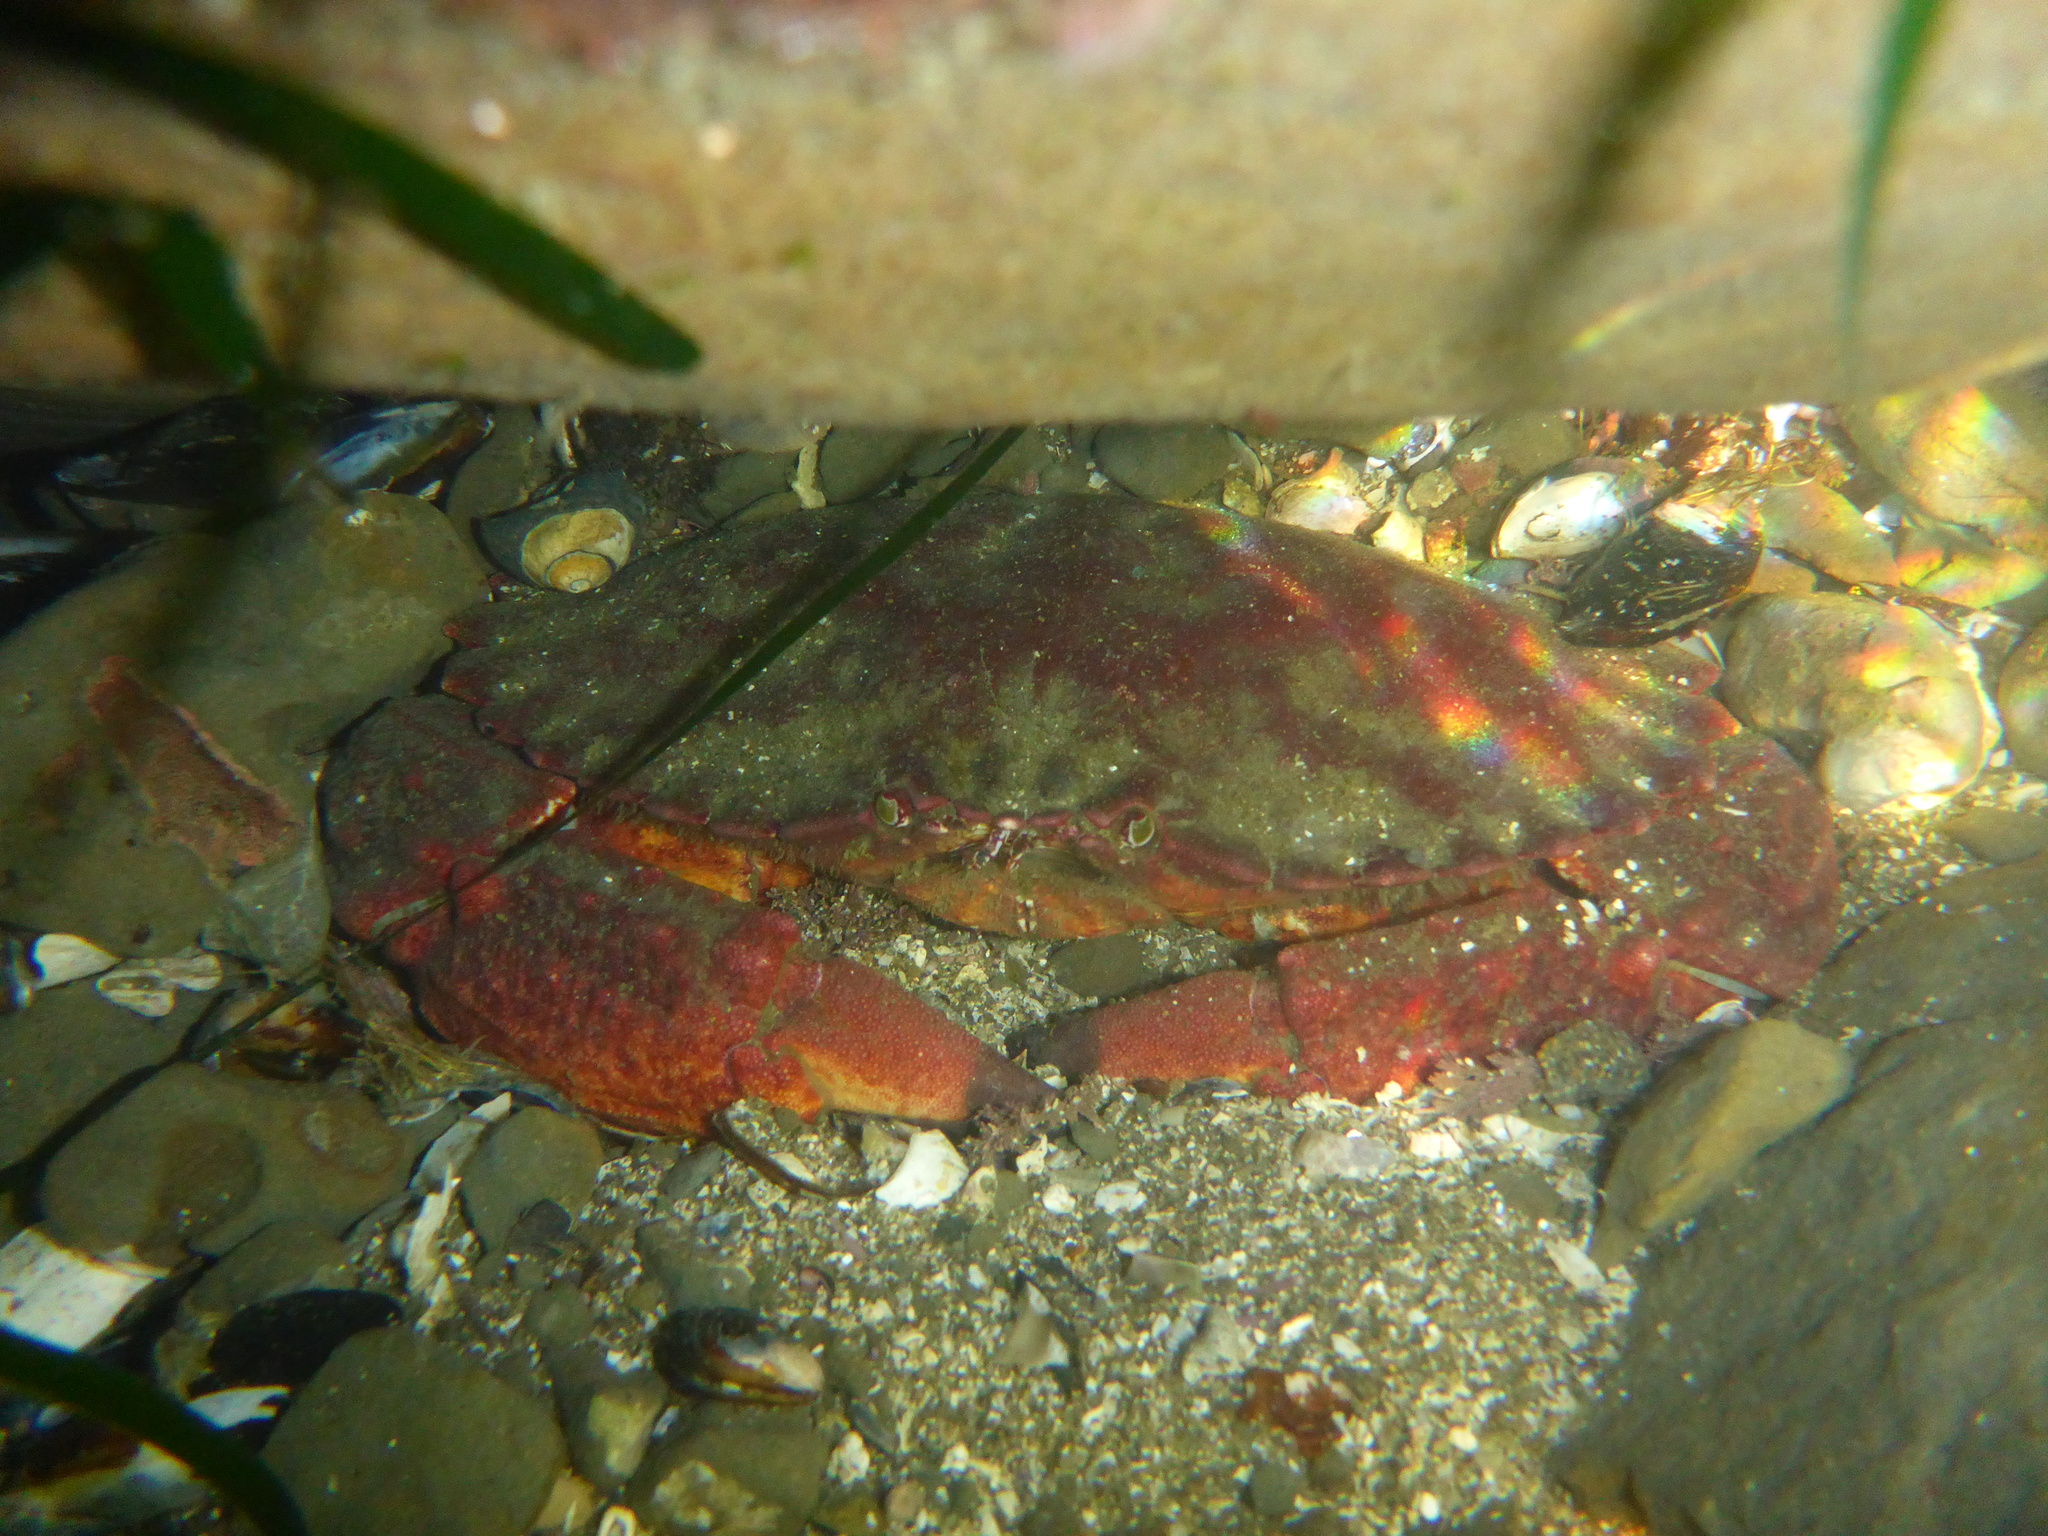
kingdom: Animalia
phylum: Arthropoda
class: Malacostraca
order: Decapoda
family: Cancridae
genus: Cancer
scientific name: Cancer productus
